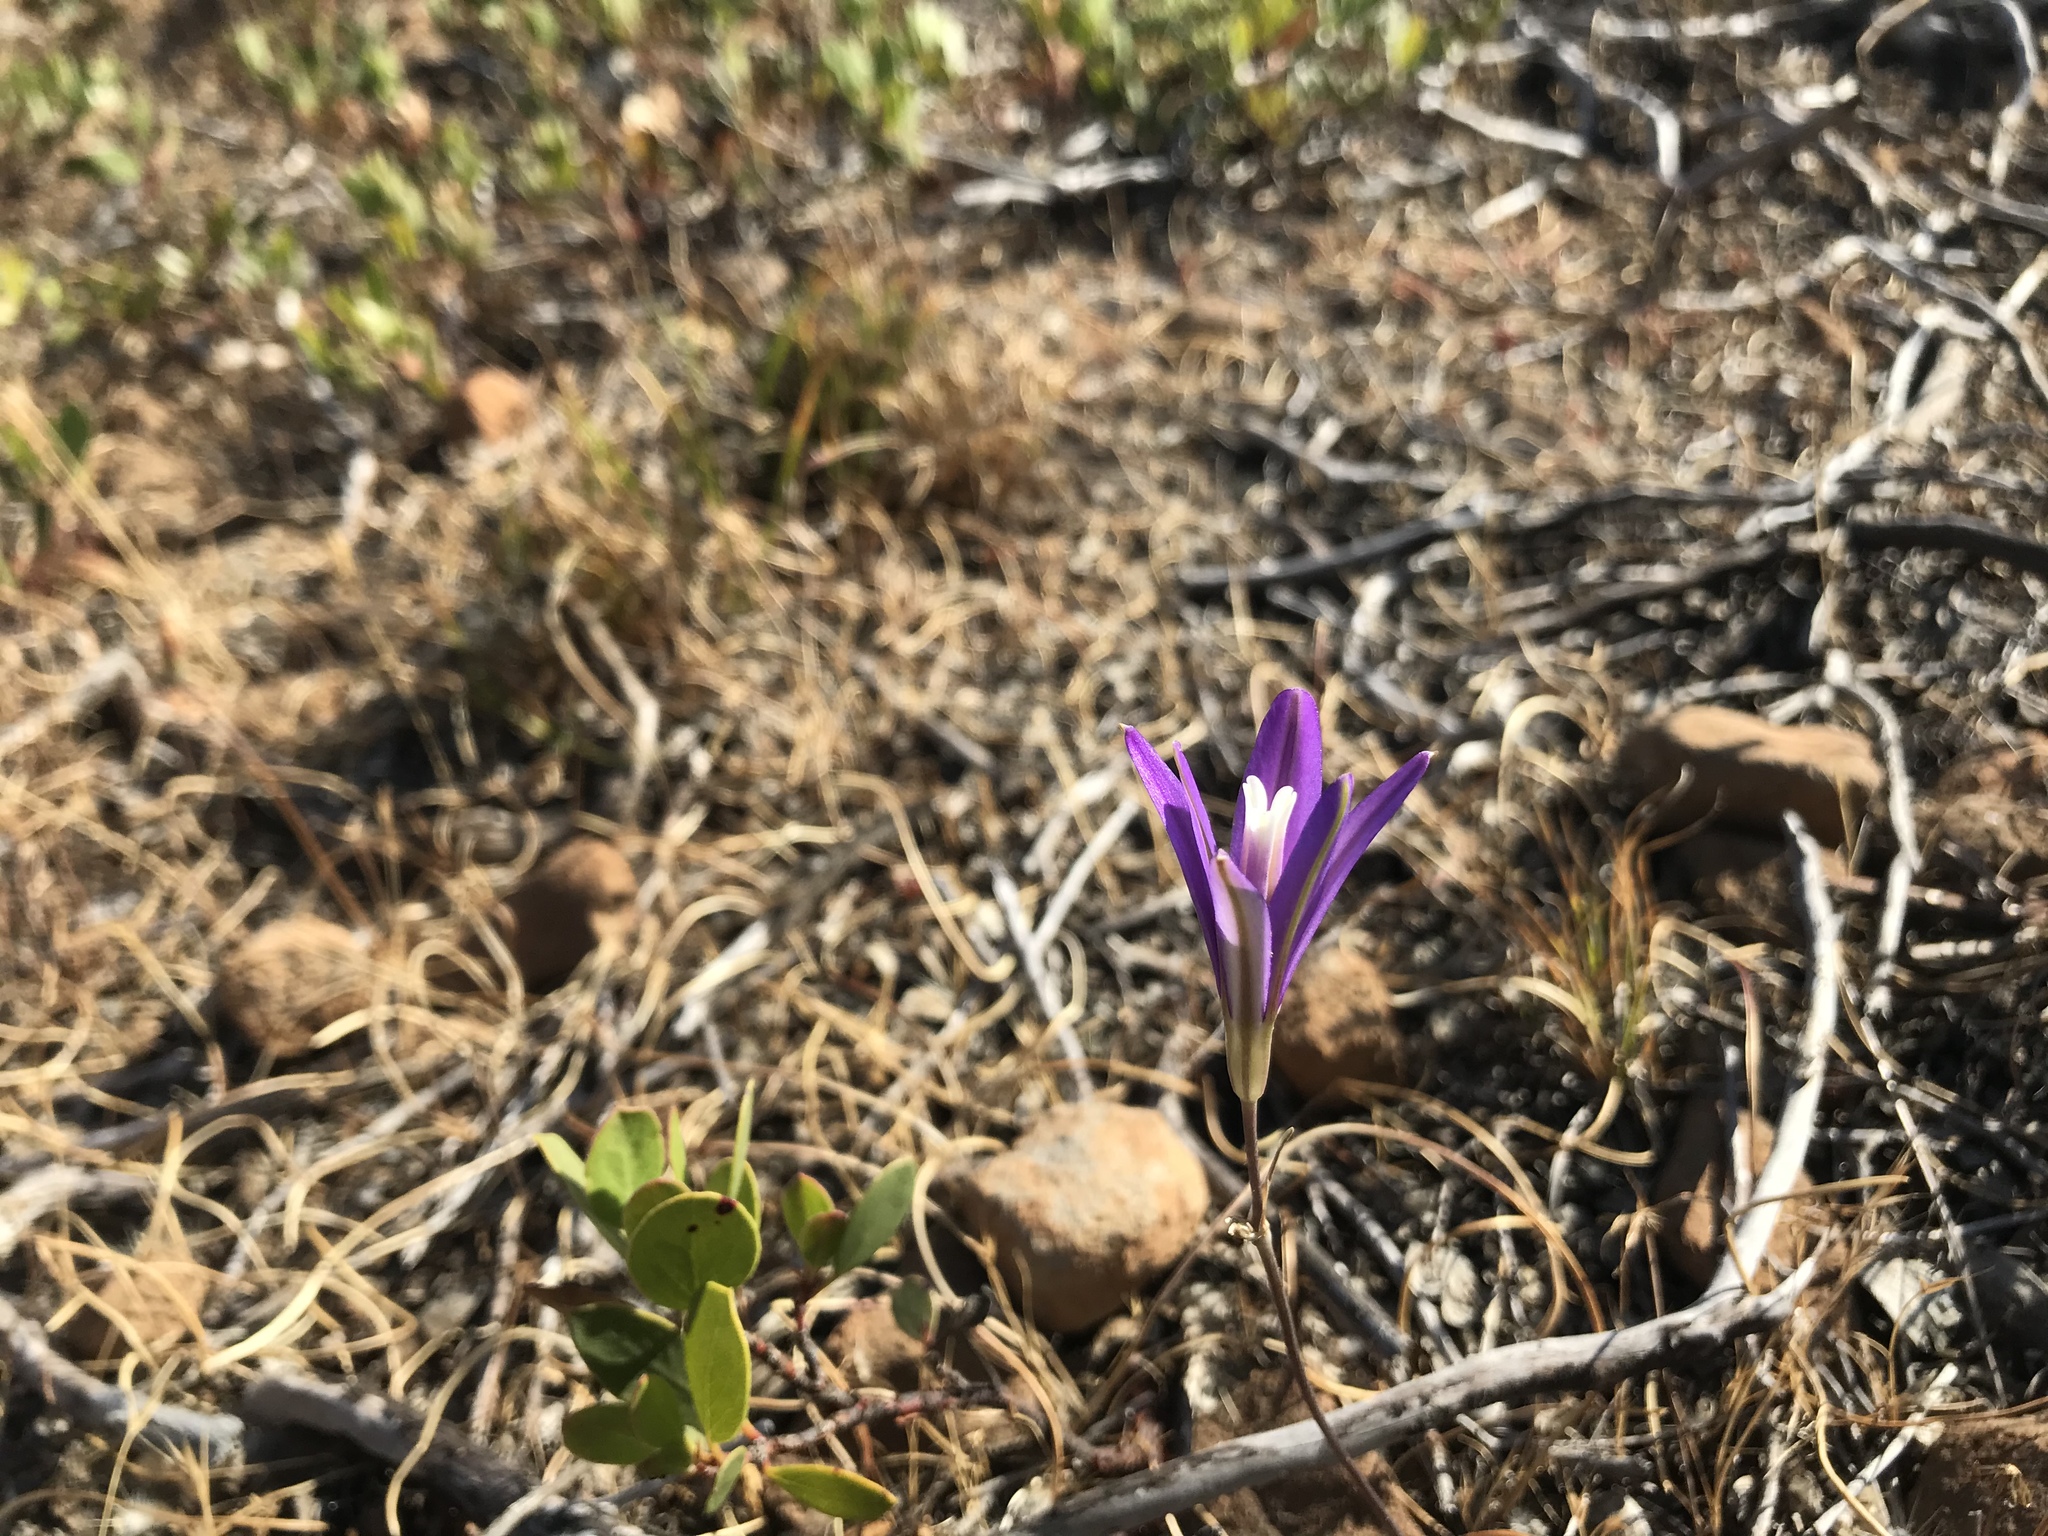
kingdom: Plantae
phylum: Tracheophyta
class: Liliopsida
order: Asparagales
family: Asparagaceae
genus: Brodiaea
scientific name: Brodiaea californica
